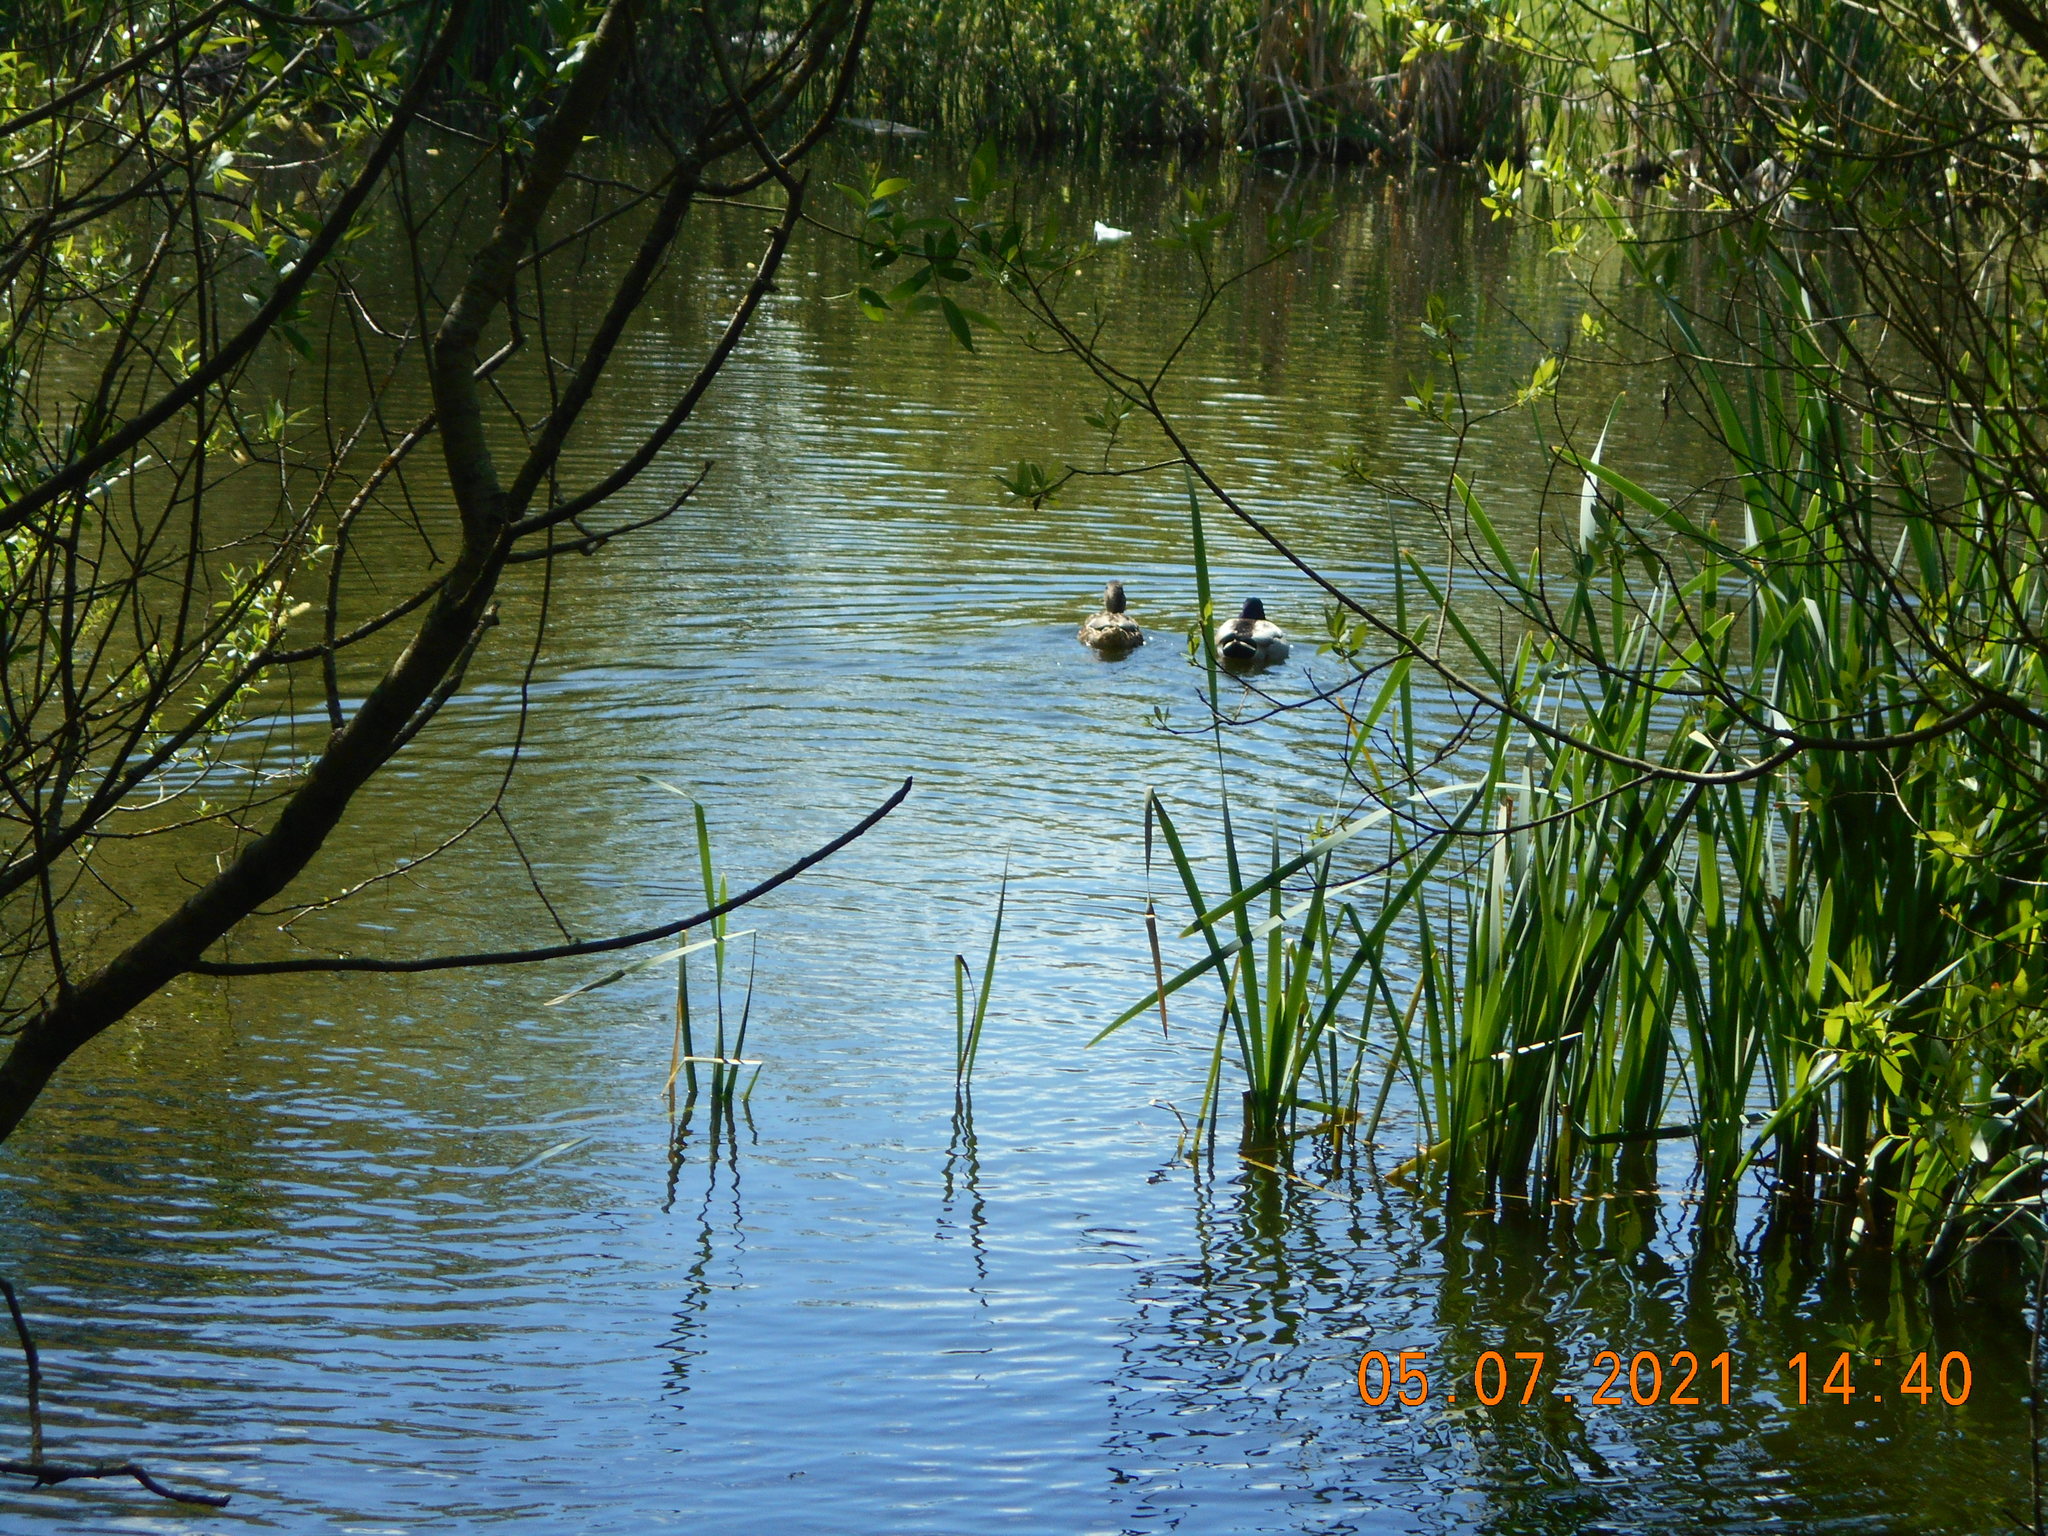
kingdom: Animalia
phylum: Chordata
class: Aves
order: Anseriformes
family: Anatidae
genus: Anas
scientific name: Anas platyrhynchos
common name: Mallard
